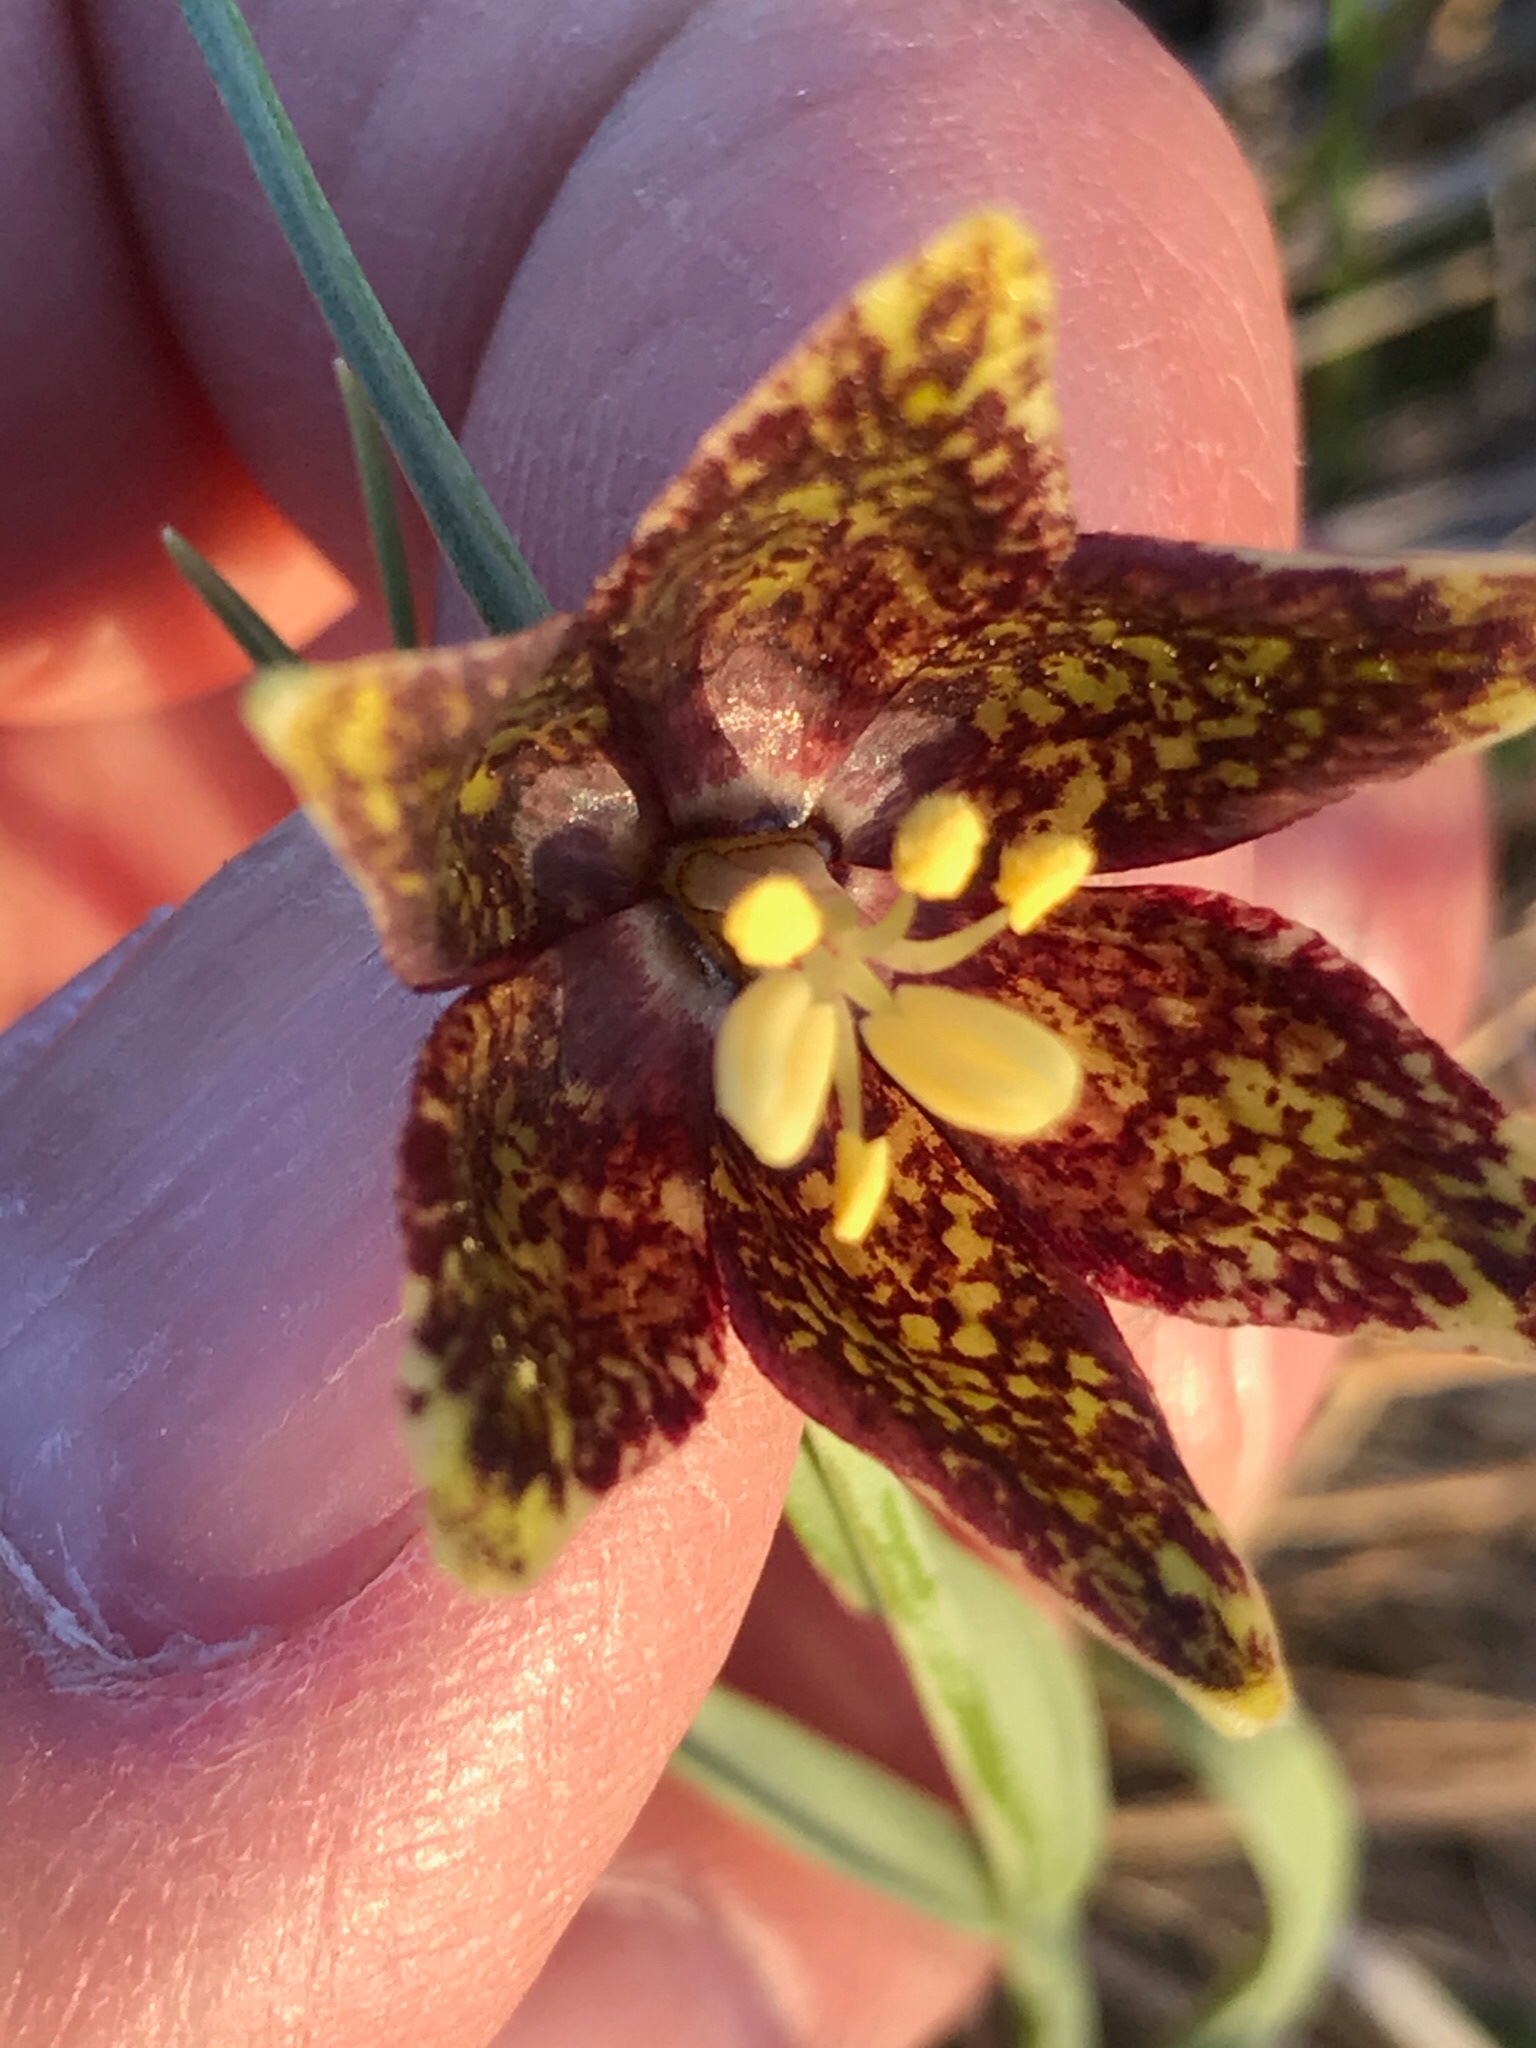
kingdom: Plantae
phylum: Tracheophyta
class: Liliopsida
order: Liliales
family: Liliaceae
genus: Fritillaria
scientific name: Fritillaria atropurpurea
